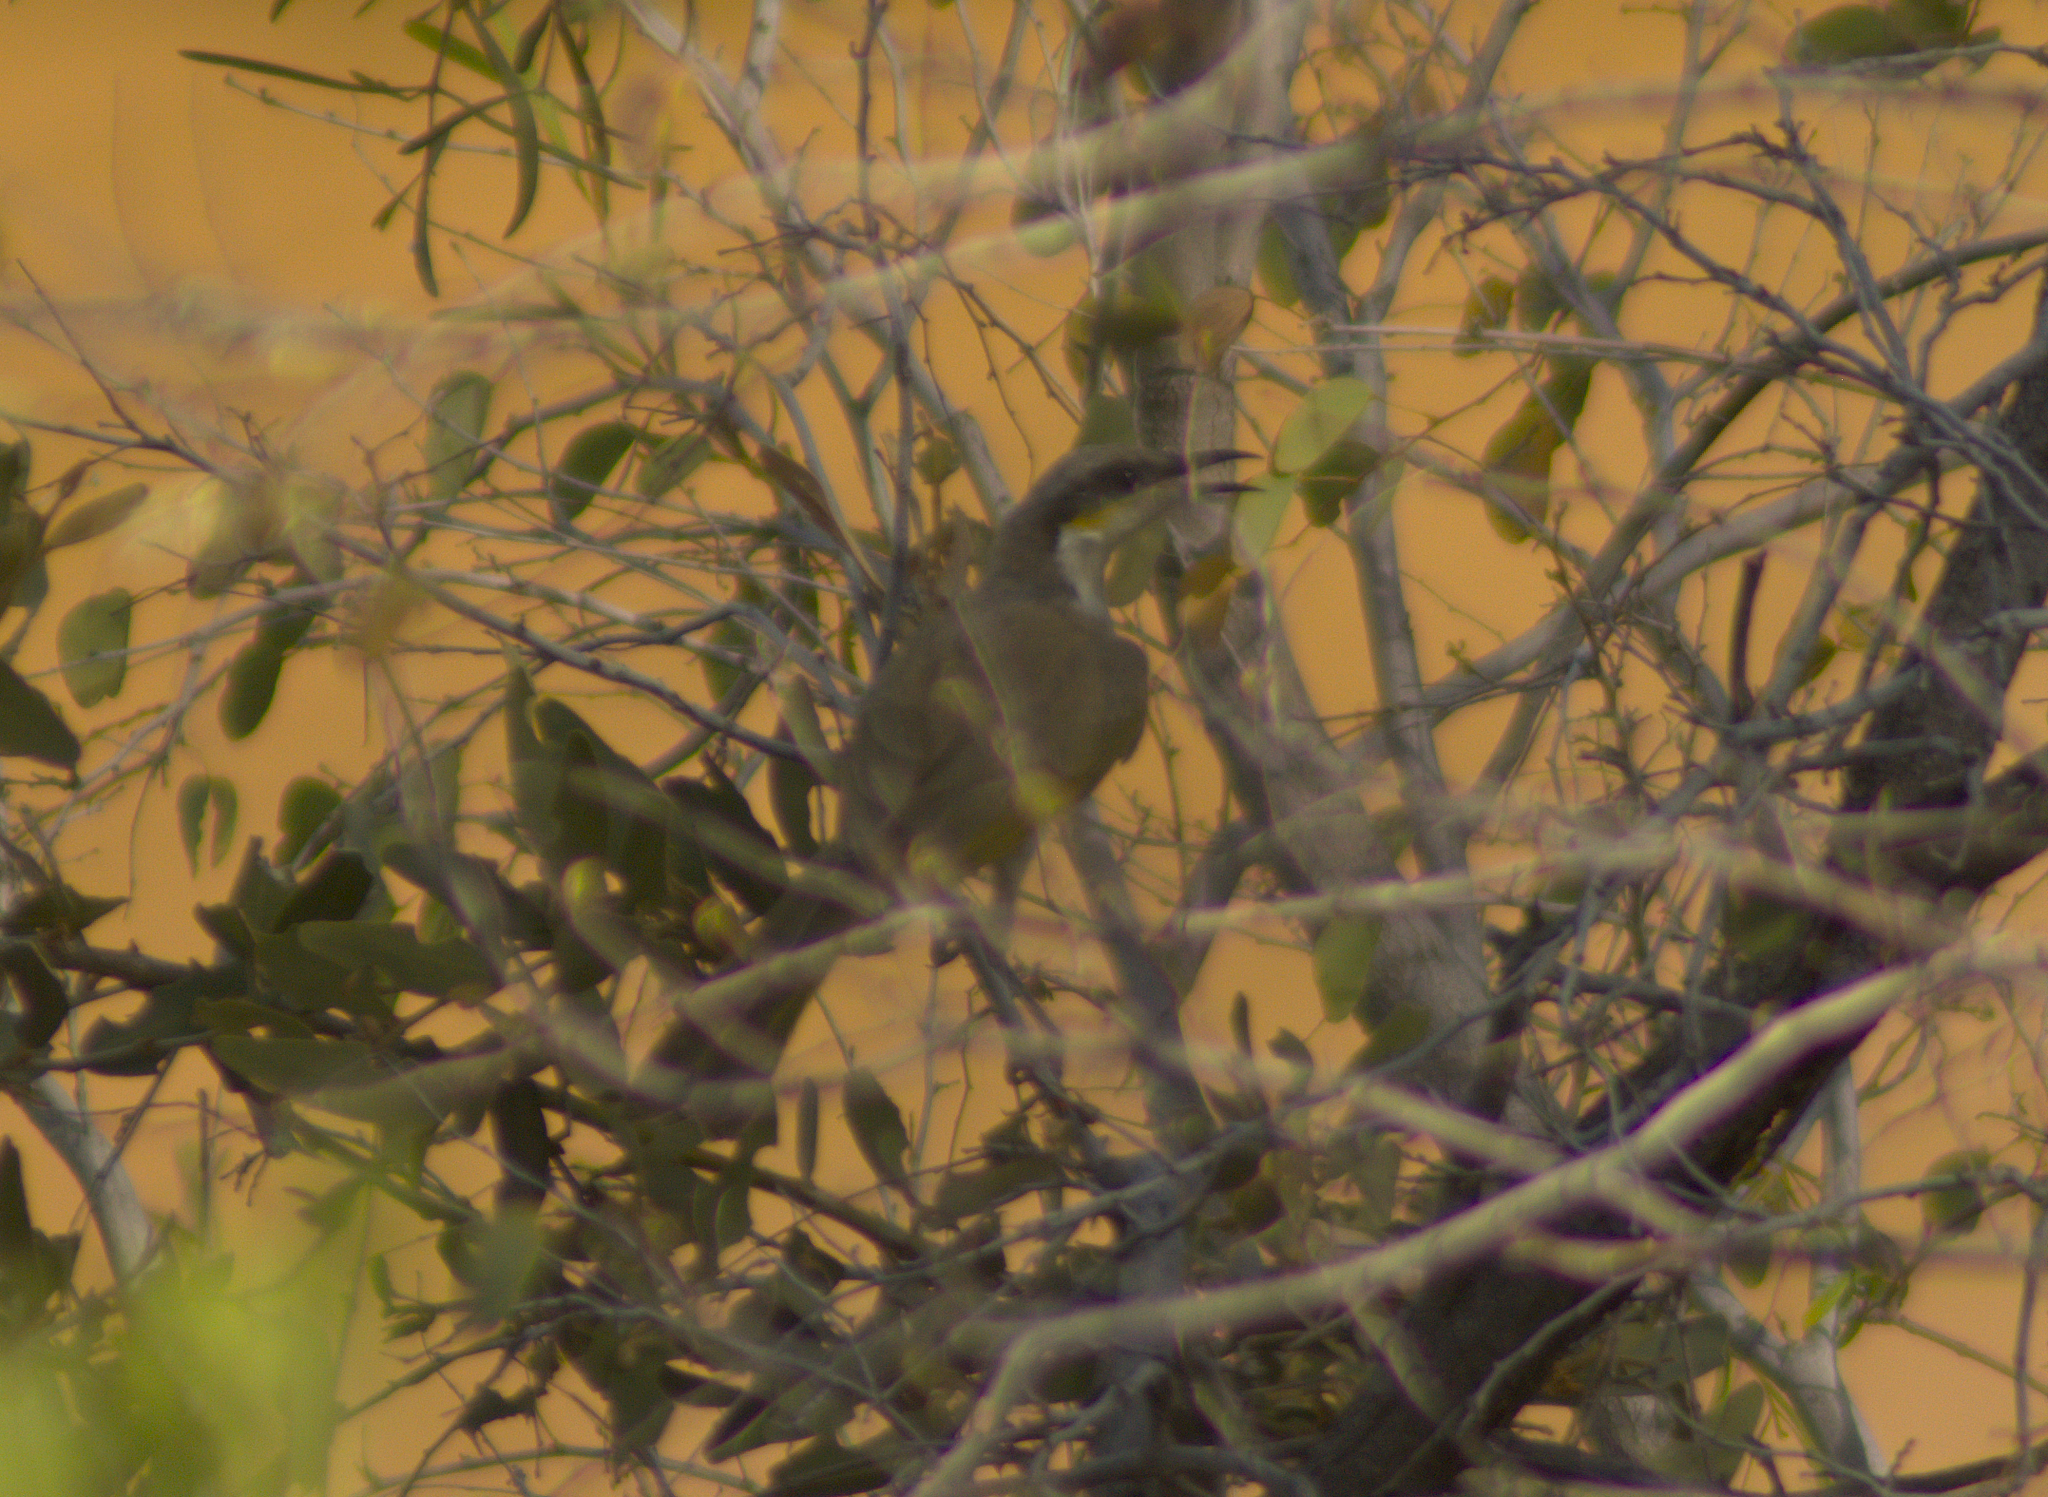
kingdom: Animalia
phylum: Chordata
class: Aves
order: Passeriformes
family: Meliphagidae
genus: Gavicalis
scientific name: Gavicalis virescens
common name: Singing honeyeater
